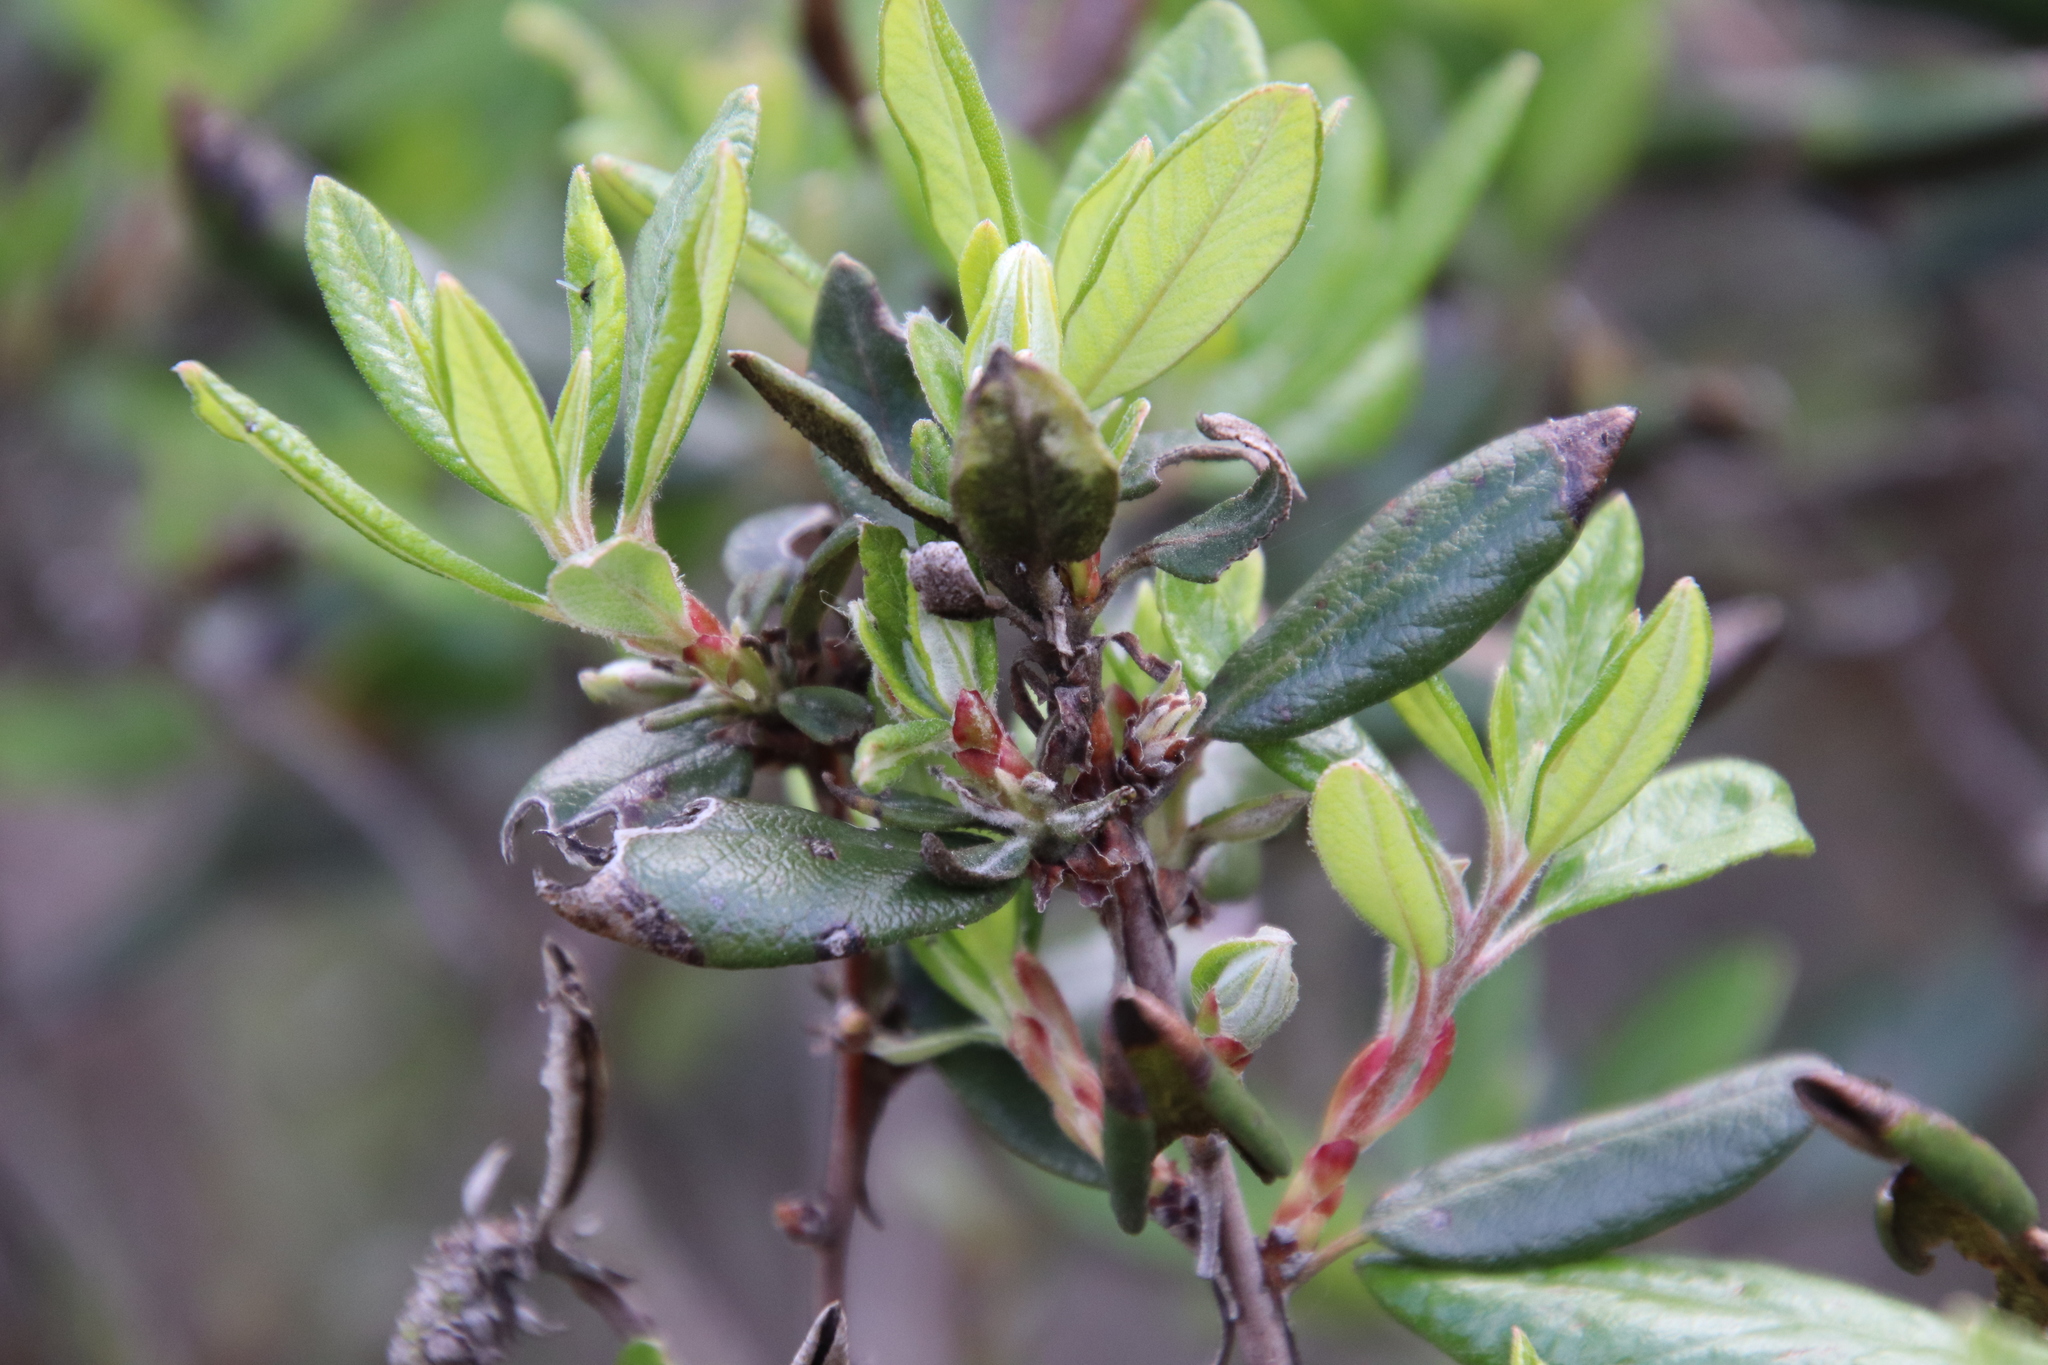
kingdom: Plantae
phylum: Tracheophyta
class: Magnoliopsida
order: Ericales
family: Ericaceae
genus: Arctostaphylos
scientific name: Arctostaphylos bicolor
